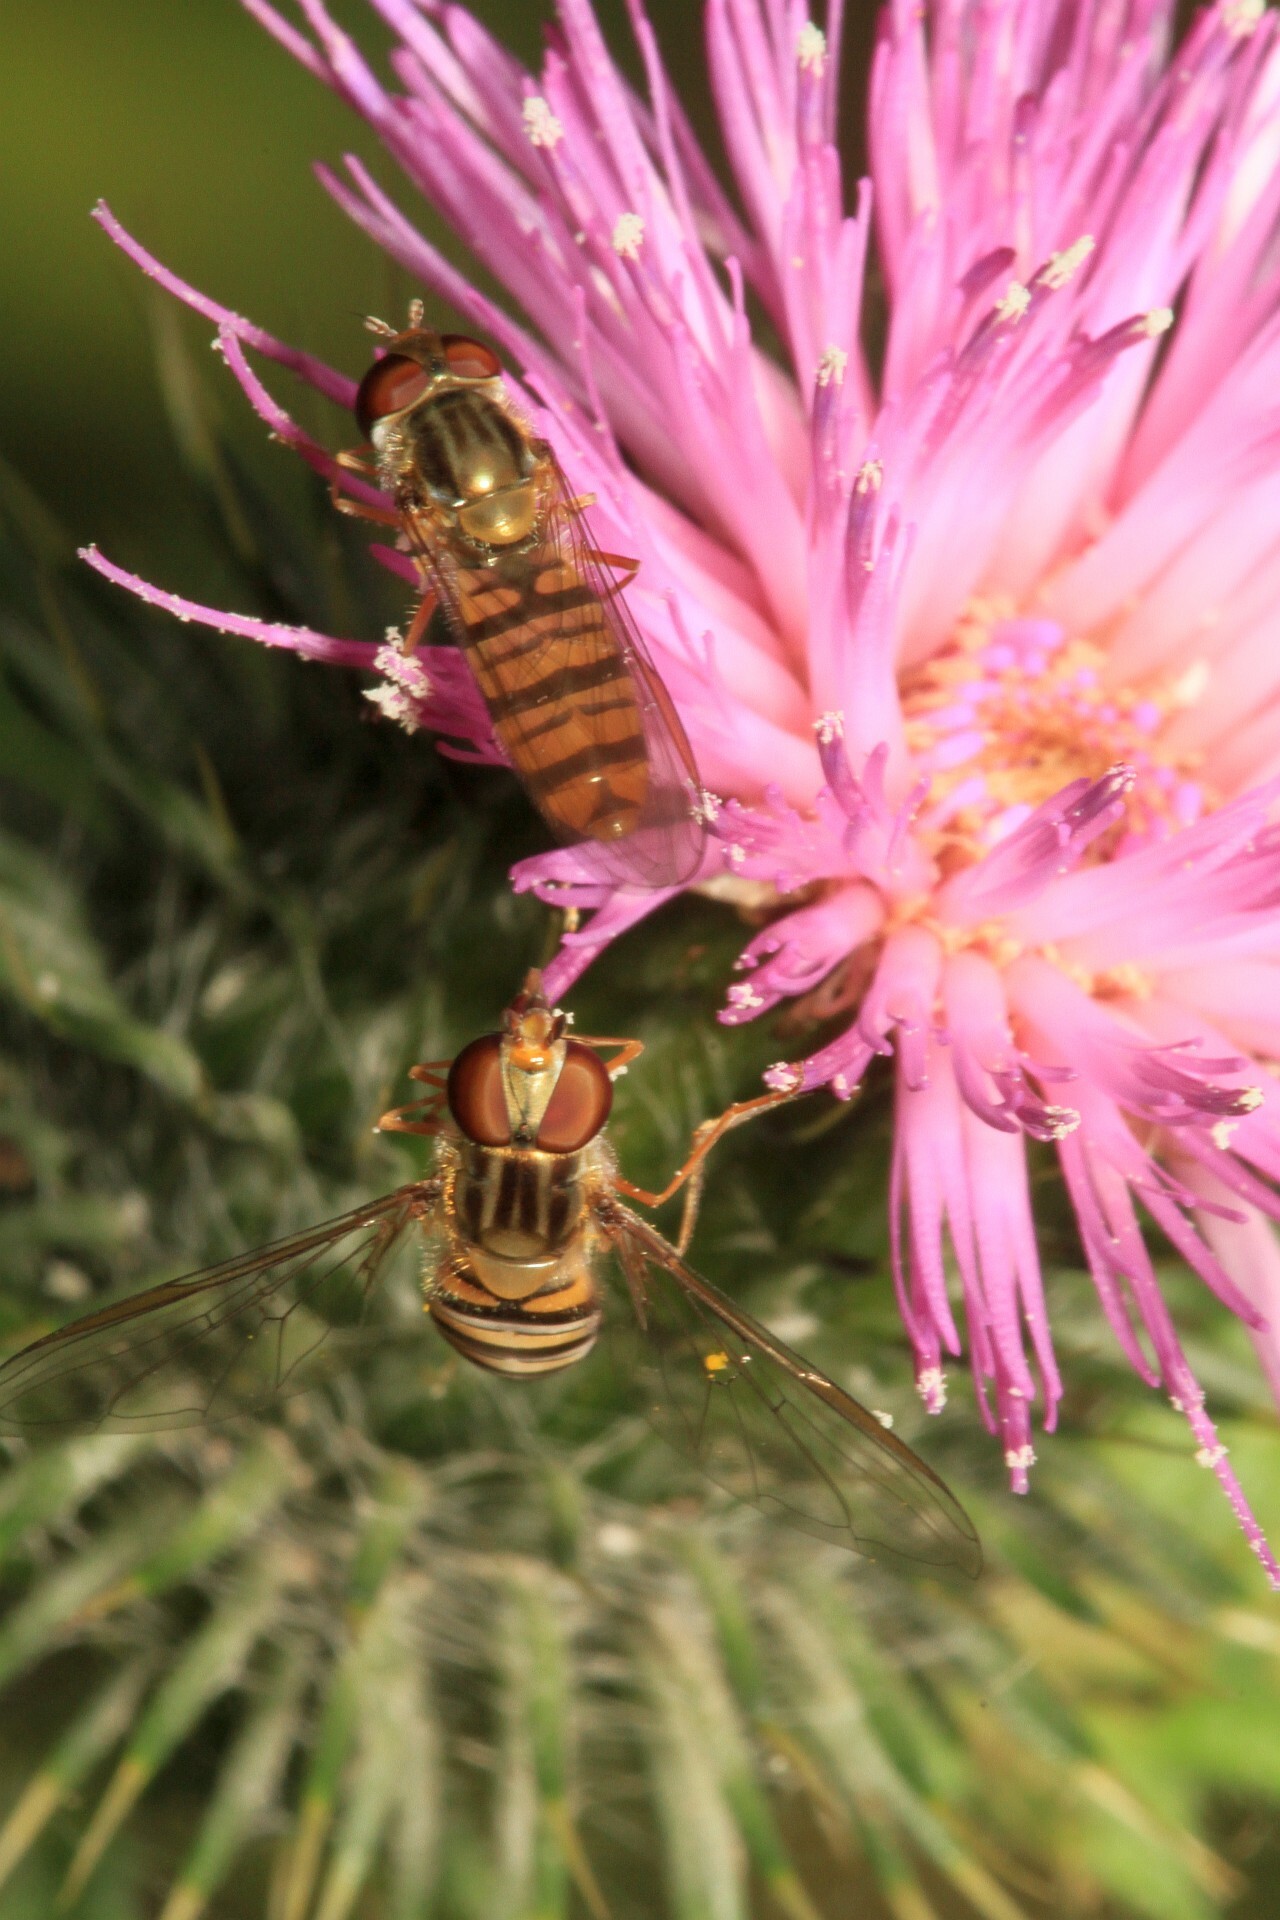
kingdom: Animalia
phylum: Arthropoda
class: Insecta
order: Diptera
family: Syrphidae
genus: Episyrphus
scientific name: Episyrphus balteatus
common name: Marmalade hoverfly
